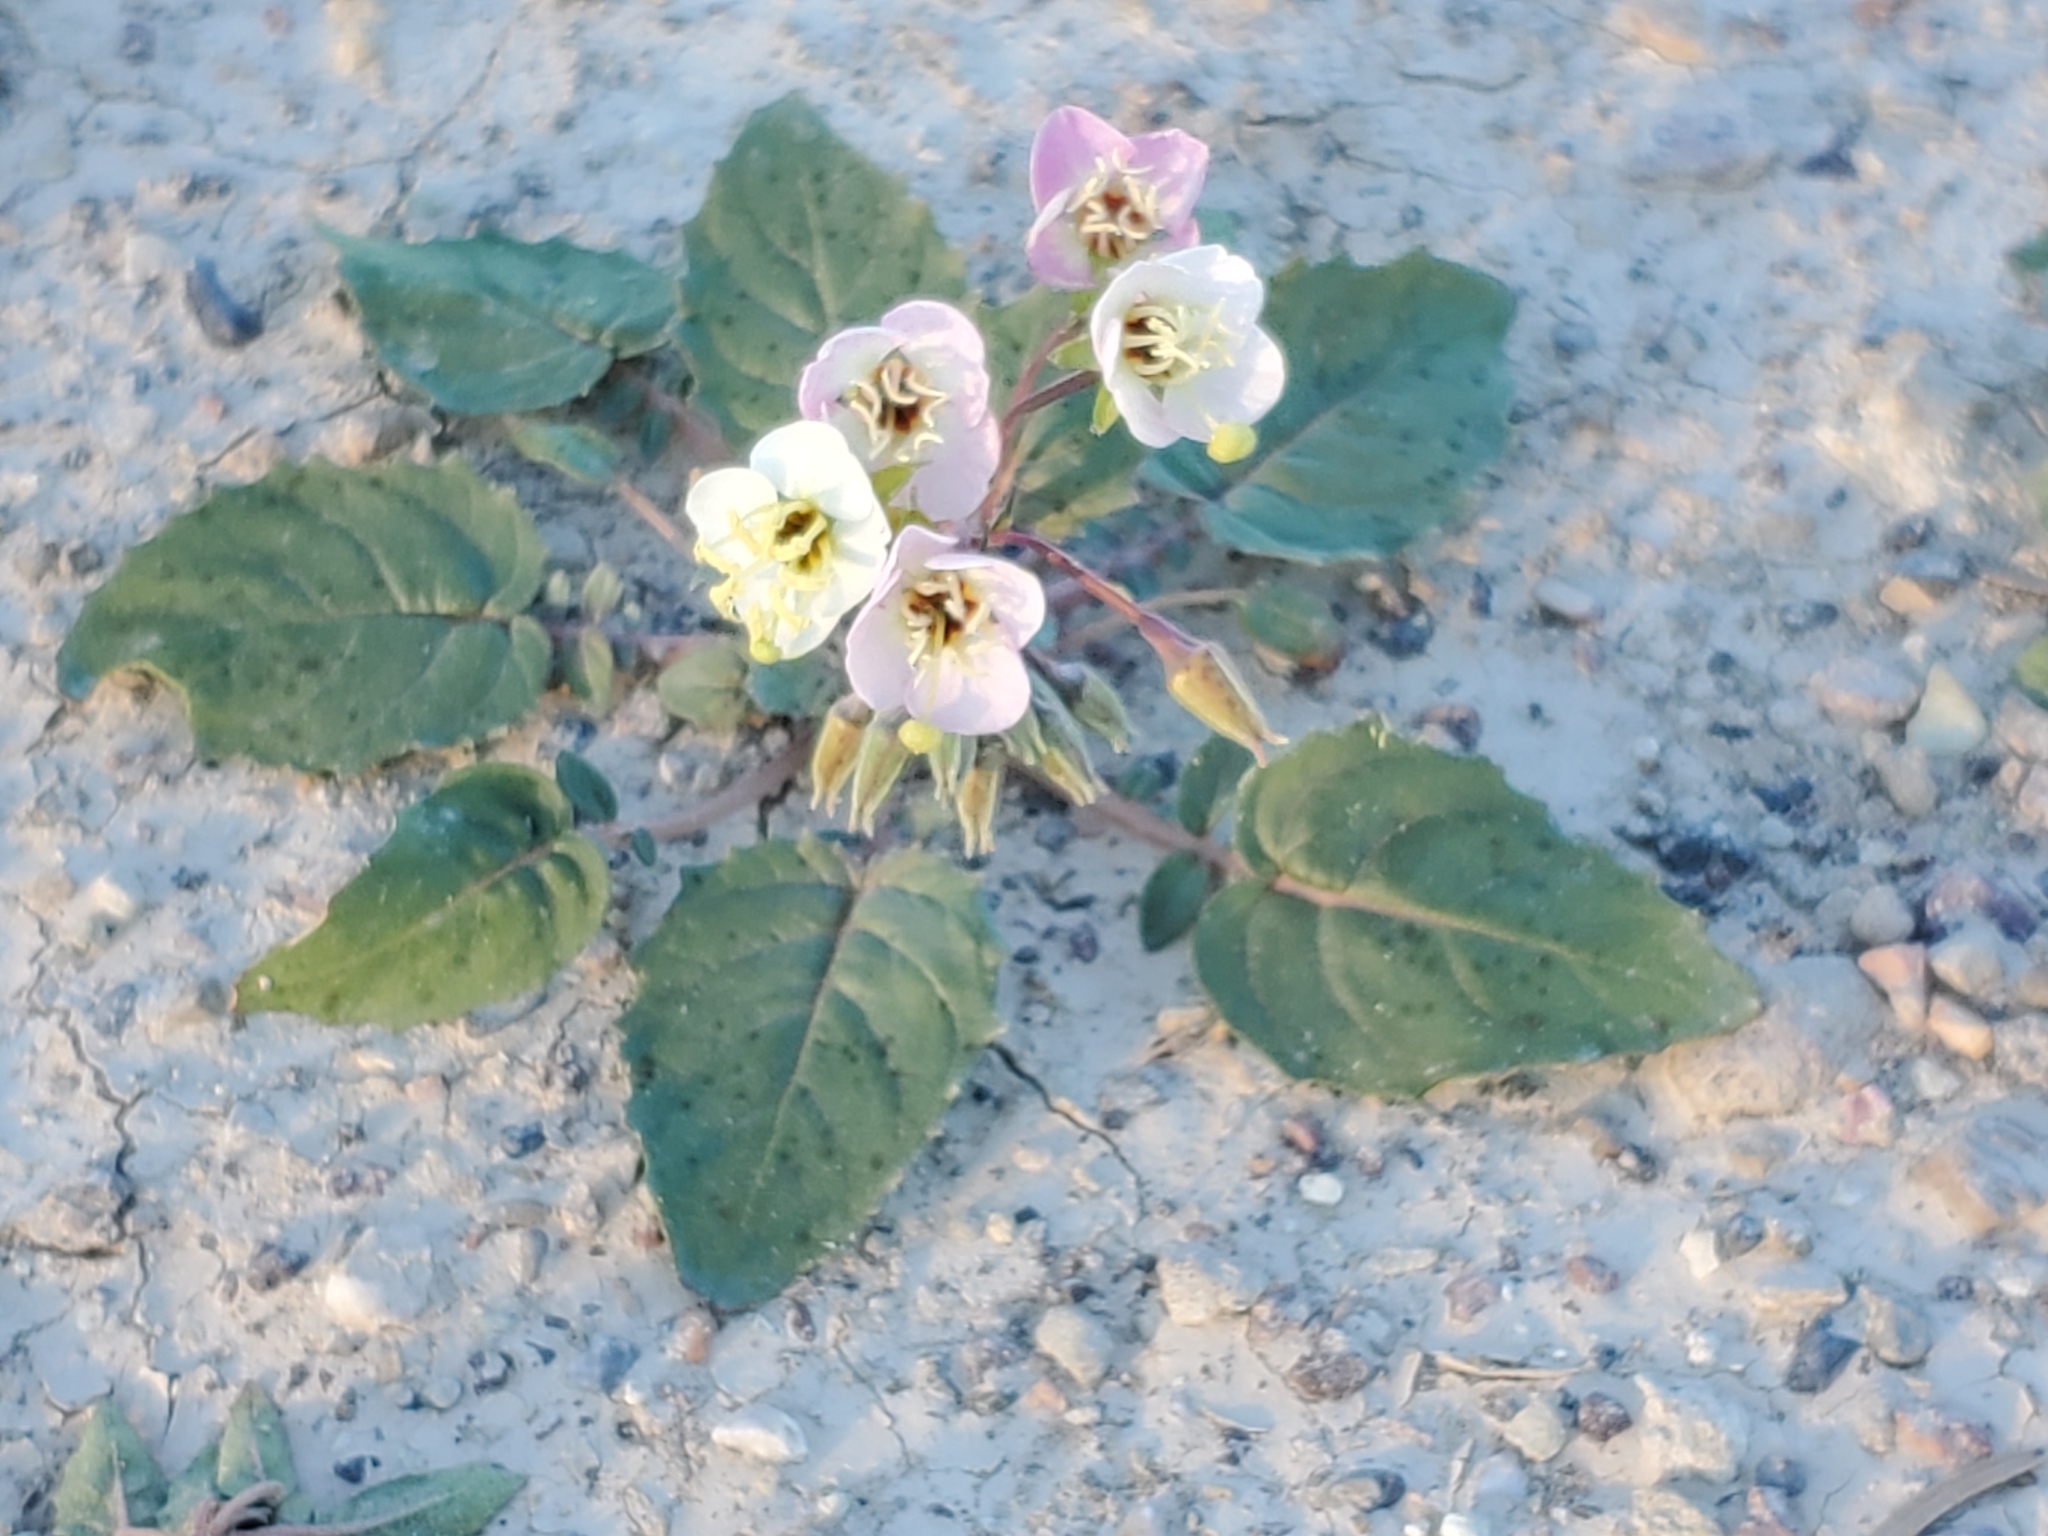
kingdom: Plantae
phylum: Tracheophyta
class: Magnoliopsida
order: Myrtales
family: Onagraceae
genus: Chylismia
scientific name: Chylismia claviformis
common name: Browneyes
